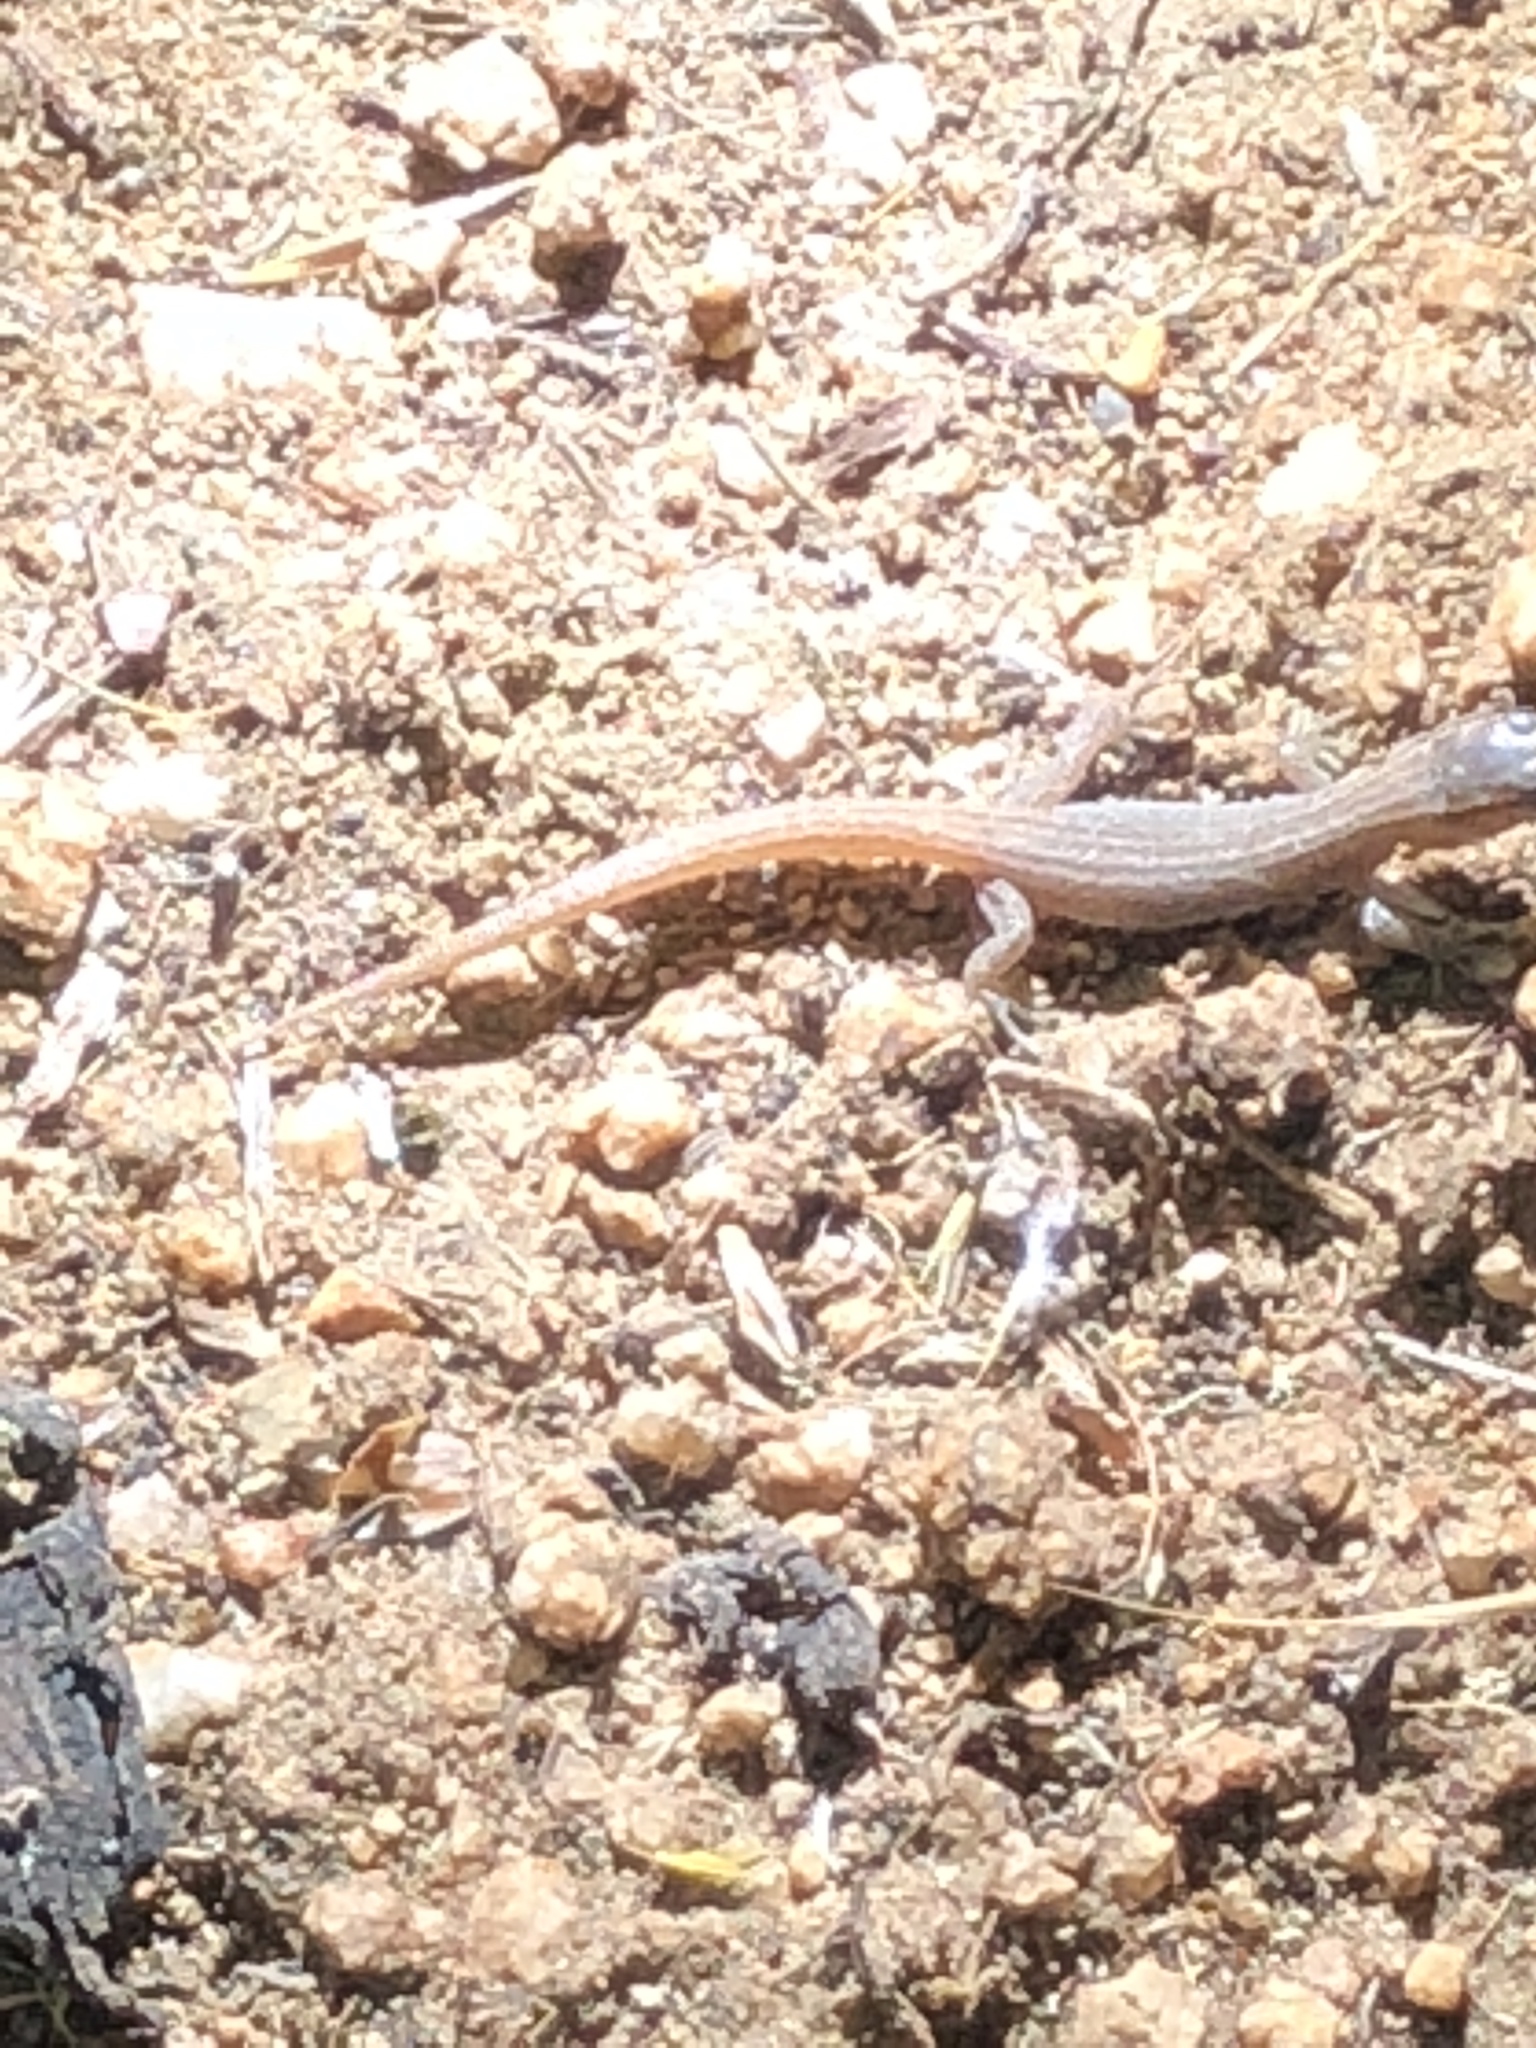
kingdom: Animalia
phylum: Chordata
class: Squamata
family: Xantusiidae
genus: Xantusia
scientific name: Xantusia vigilis
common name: Desert night lizard
